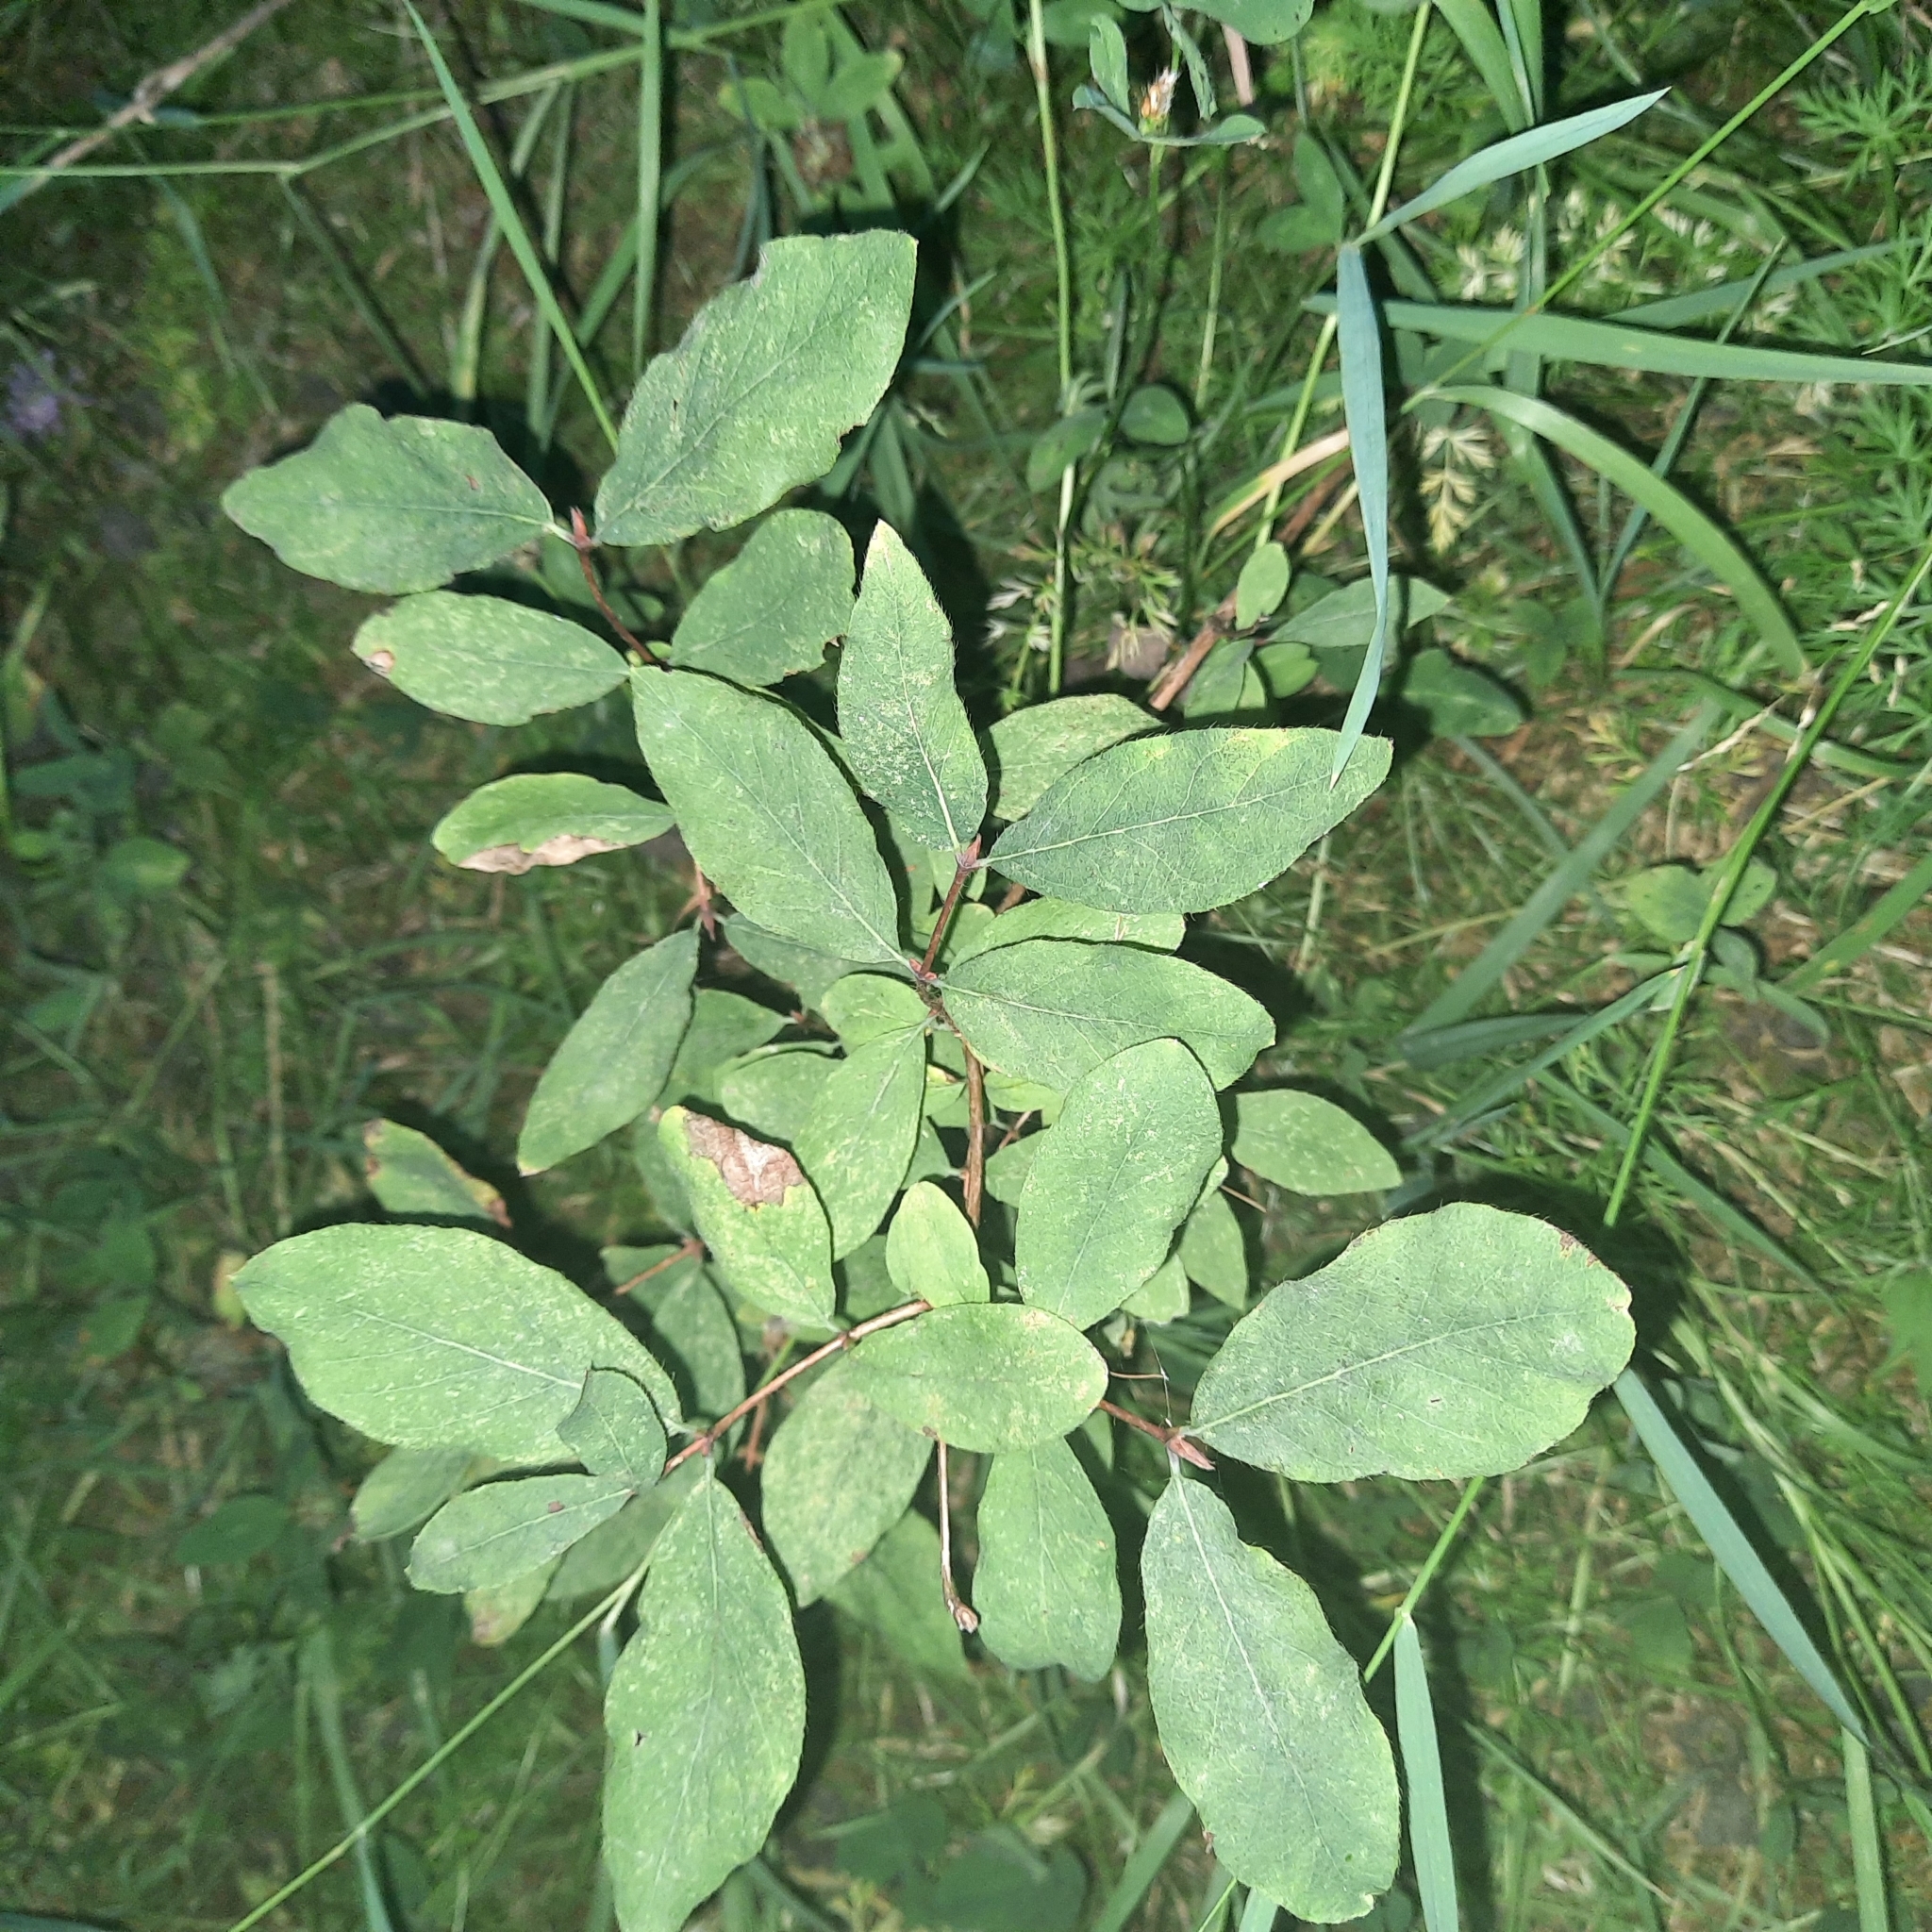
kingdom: Plantae
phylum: Tracheophyta
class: Magnoliopsida
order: Dipsacales
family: Caprifoliaceae
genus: Lonicera
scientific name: Lonicera caerulea
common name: Blue honeysuckle
